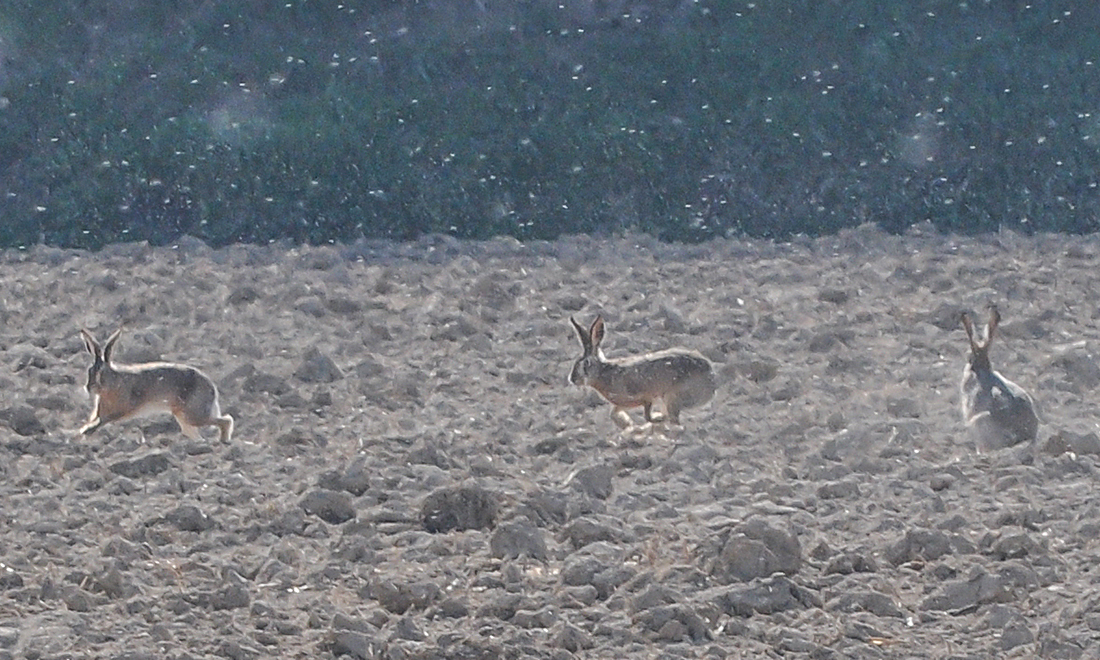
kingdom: Animalia
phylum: Chordata
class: Mammalia
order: Lagomorpha
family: Leporidae
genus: Lepus
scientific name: Lepus europaeus
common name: European hare
